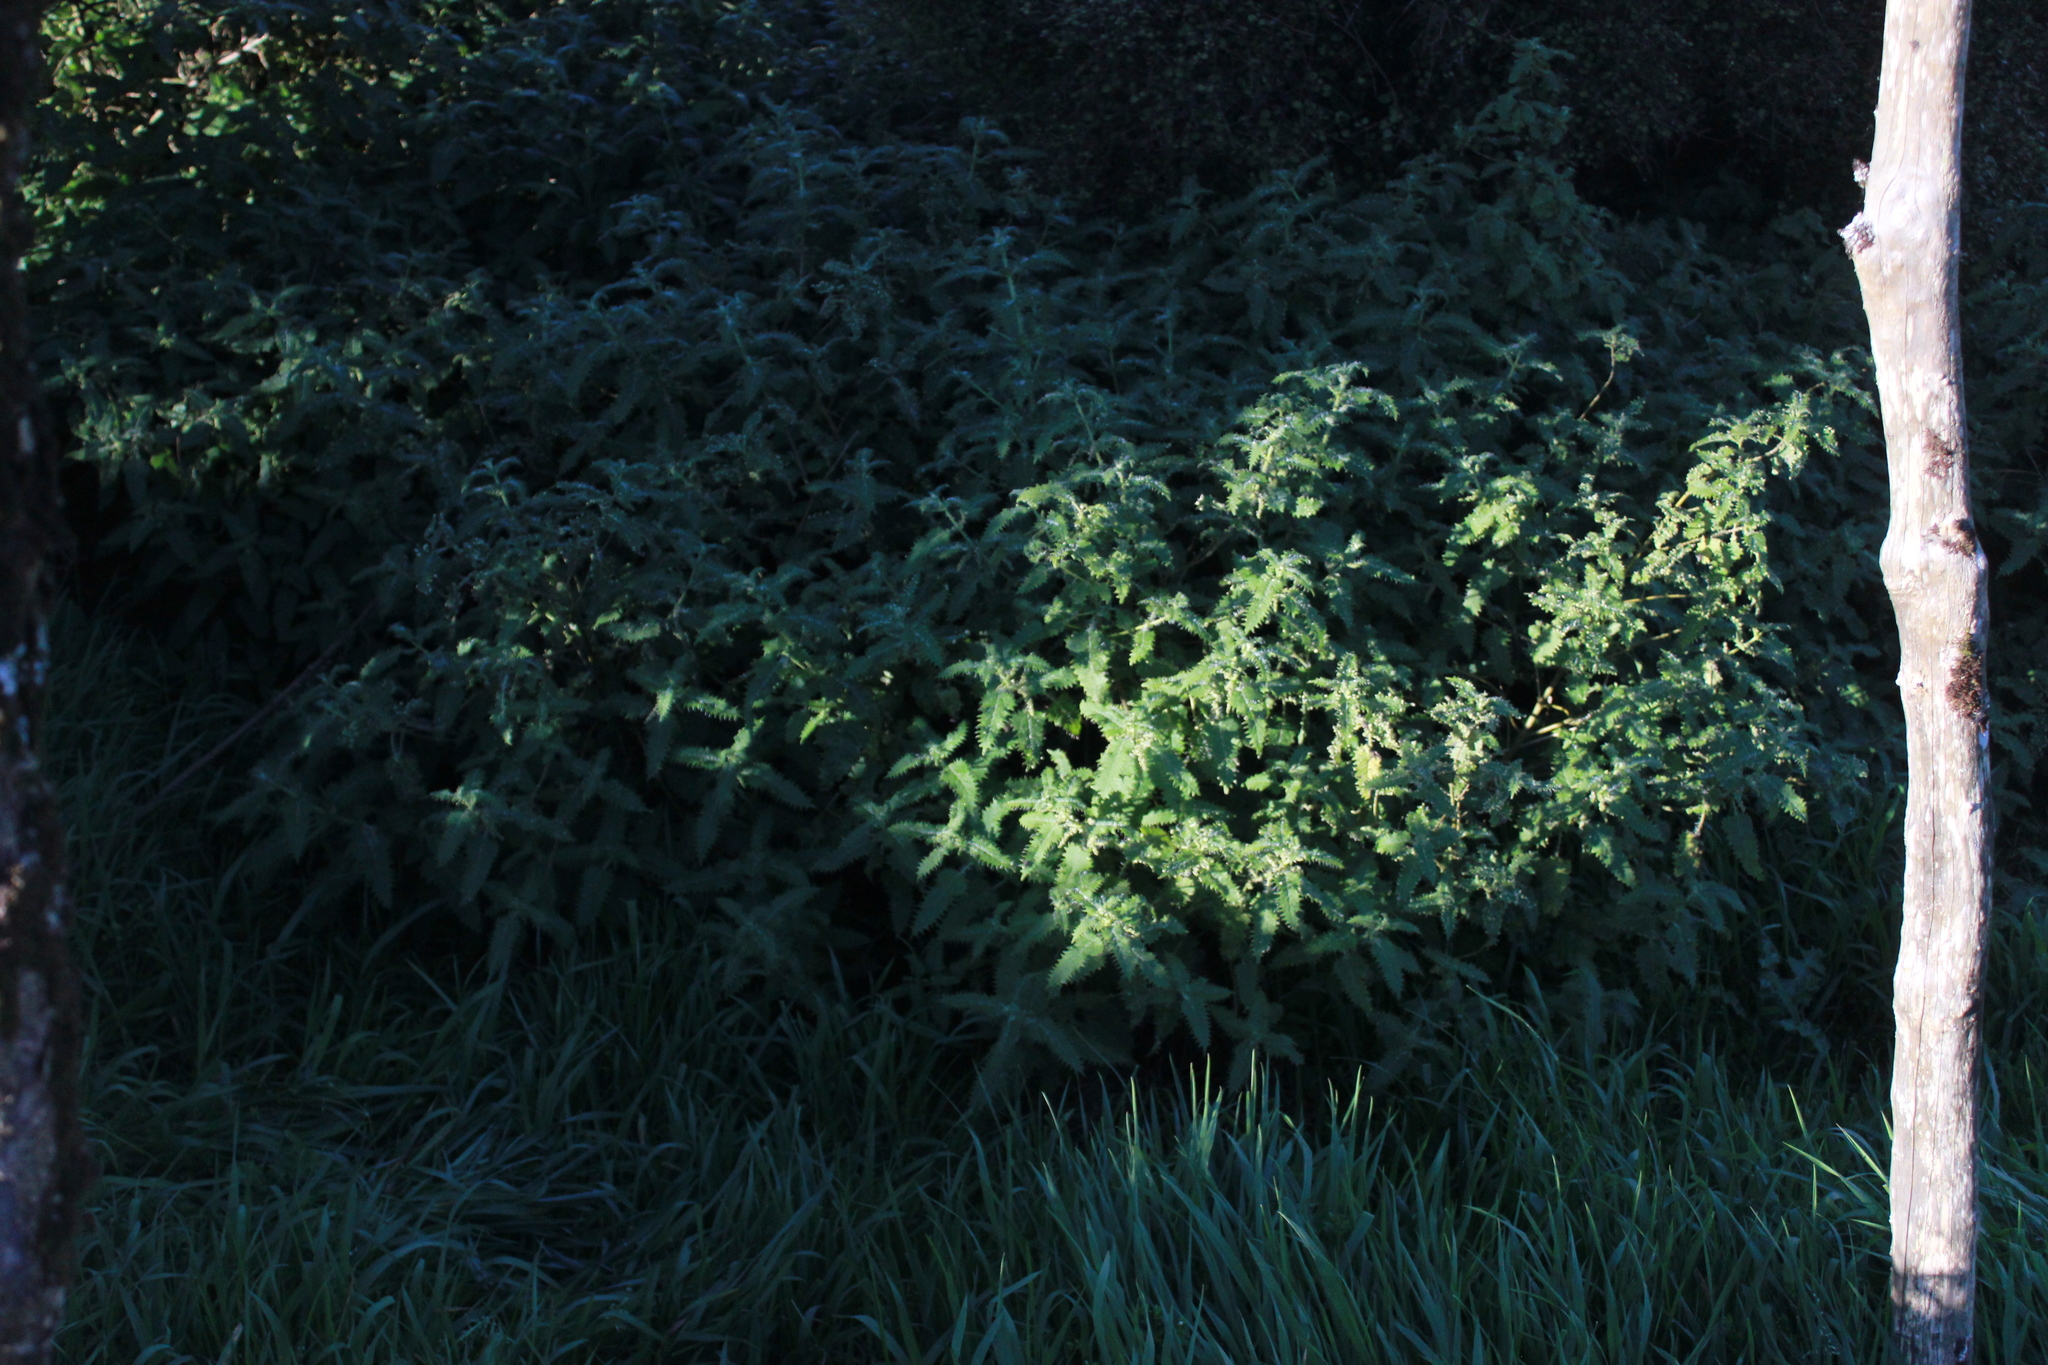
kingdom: Plantae
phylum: Tracheophyta
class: Magnoliopsida
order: Rosales
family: Urticaceae
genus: Urtica
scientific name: Urtica ferox
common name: Tree nettle
